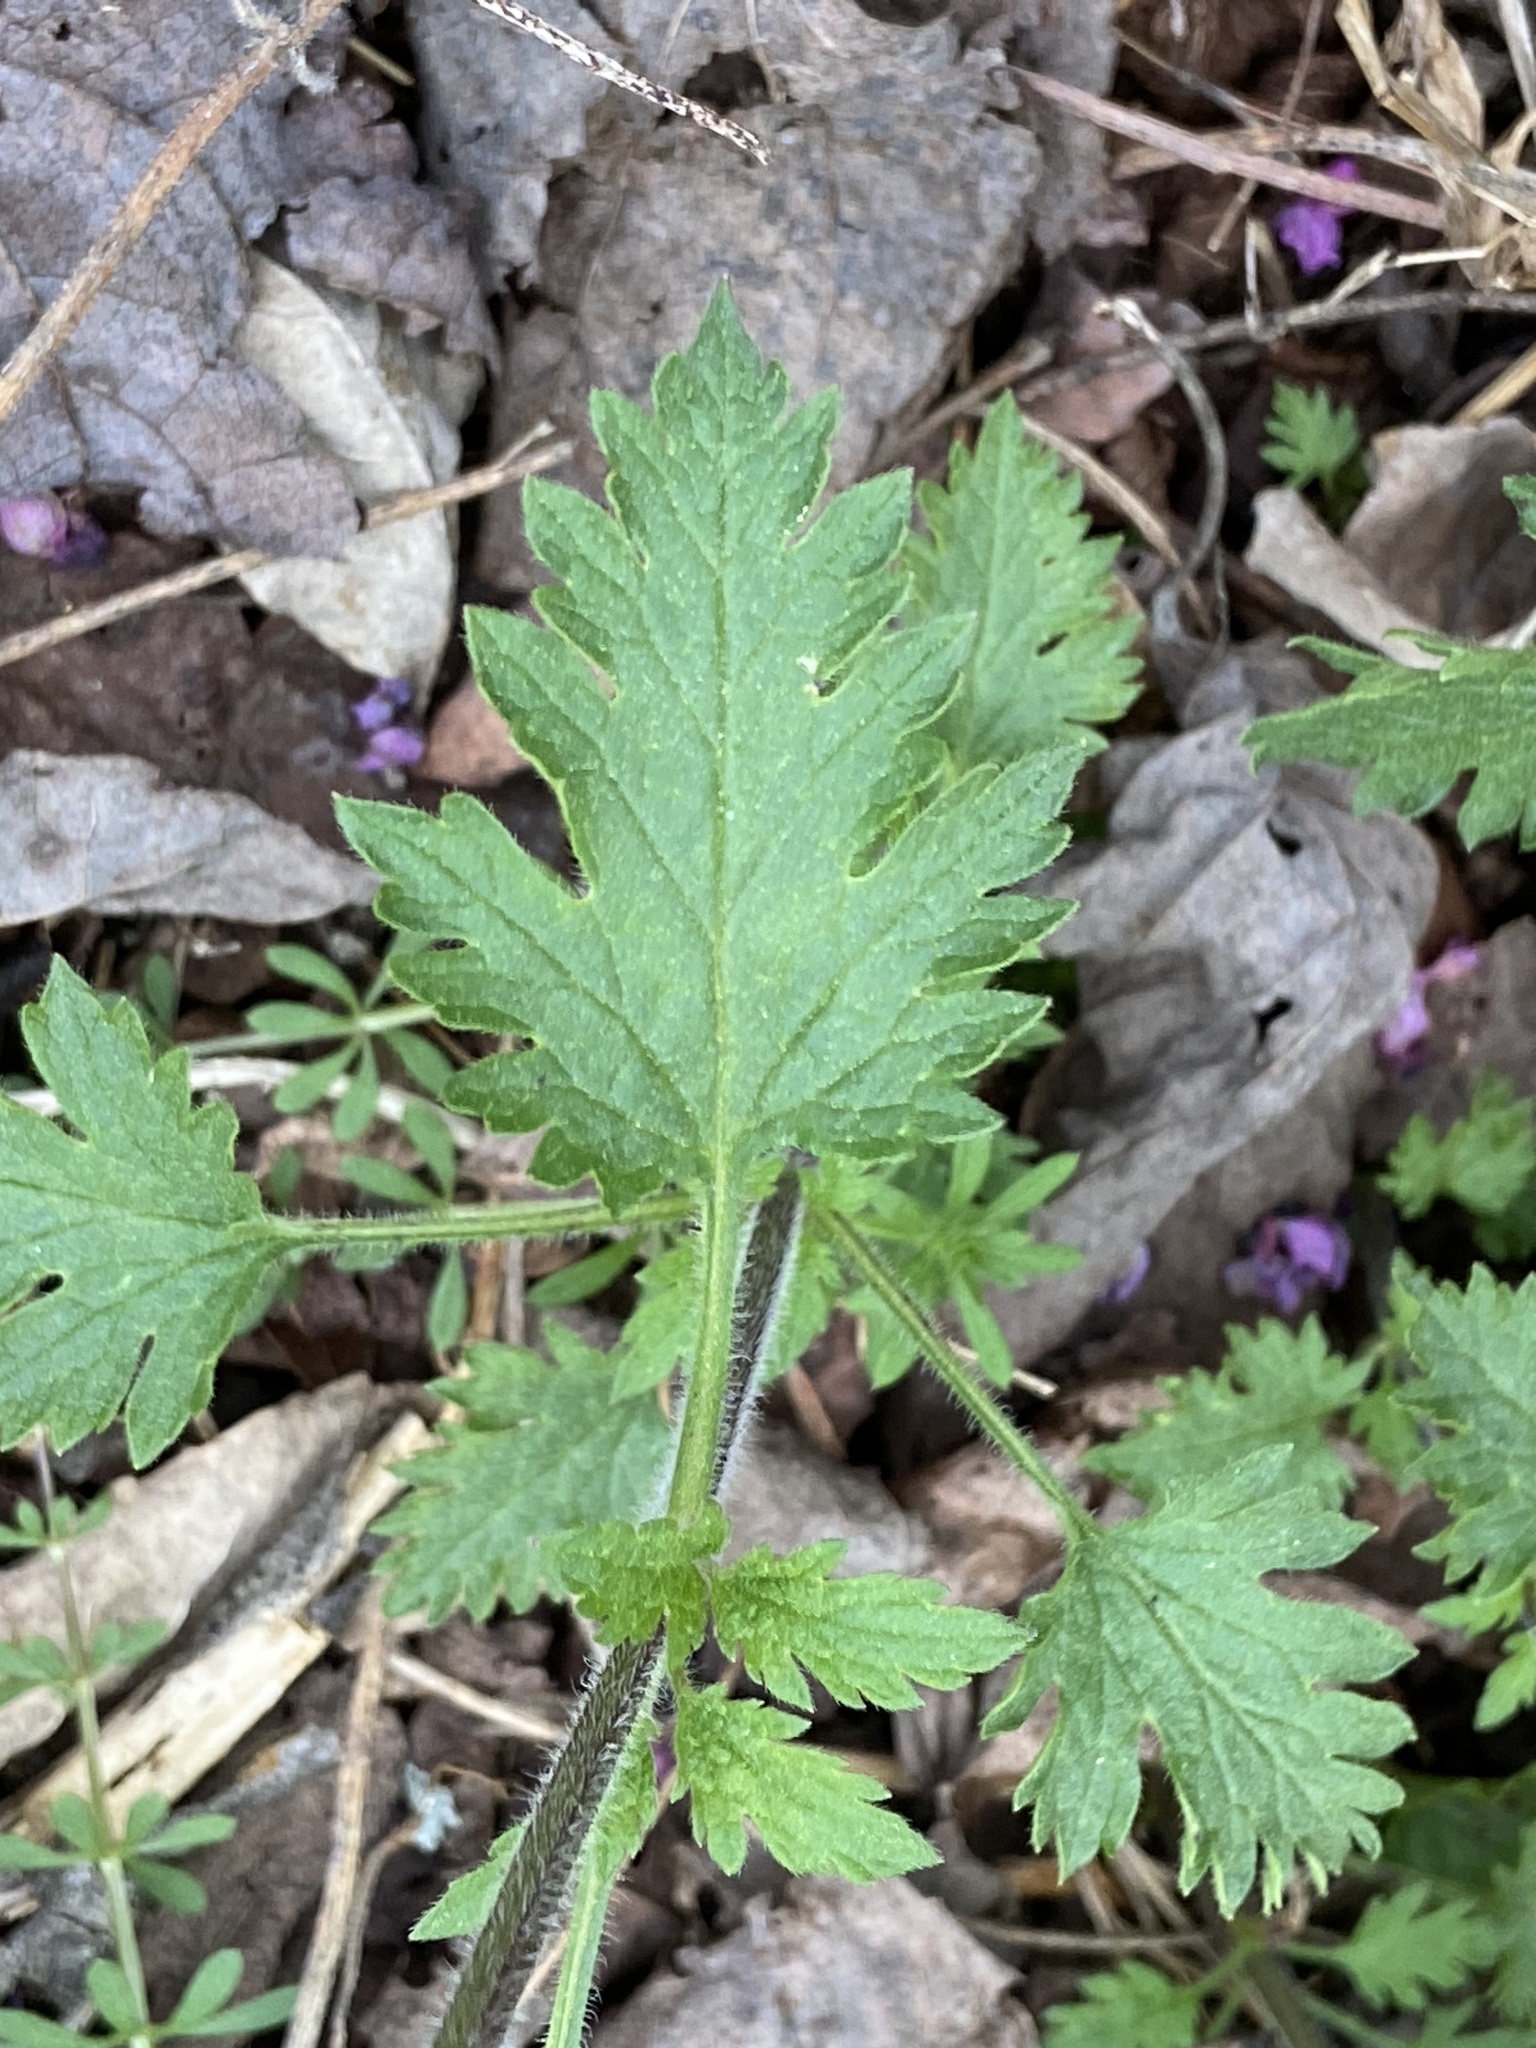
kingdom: Plantae
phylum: Tracheophyta
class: Magnoliopsida
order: Lamiales
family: Verbenaceae
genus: Verbena
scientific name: Verbena canadensis
